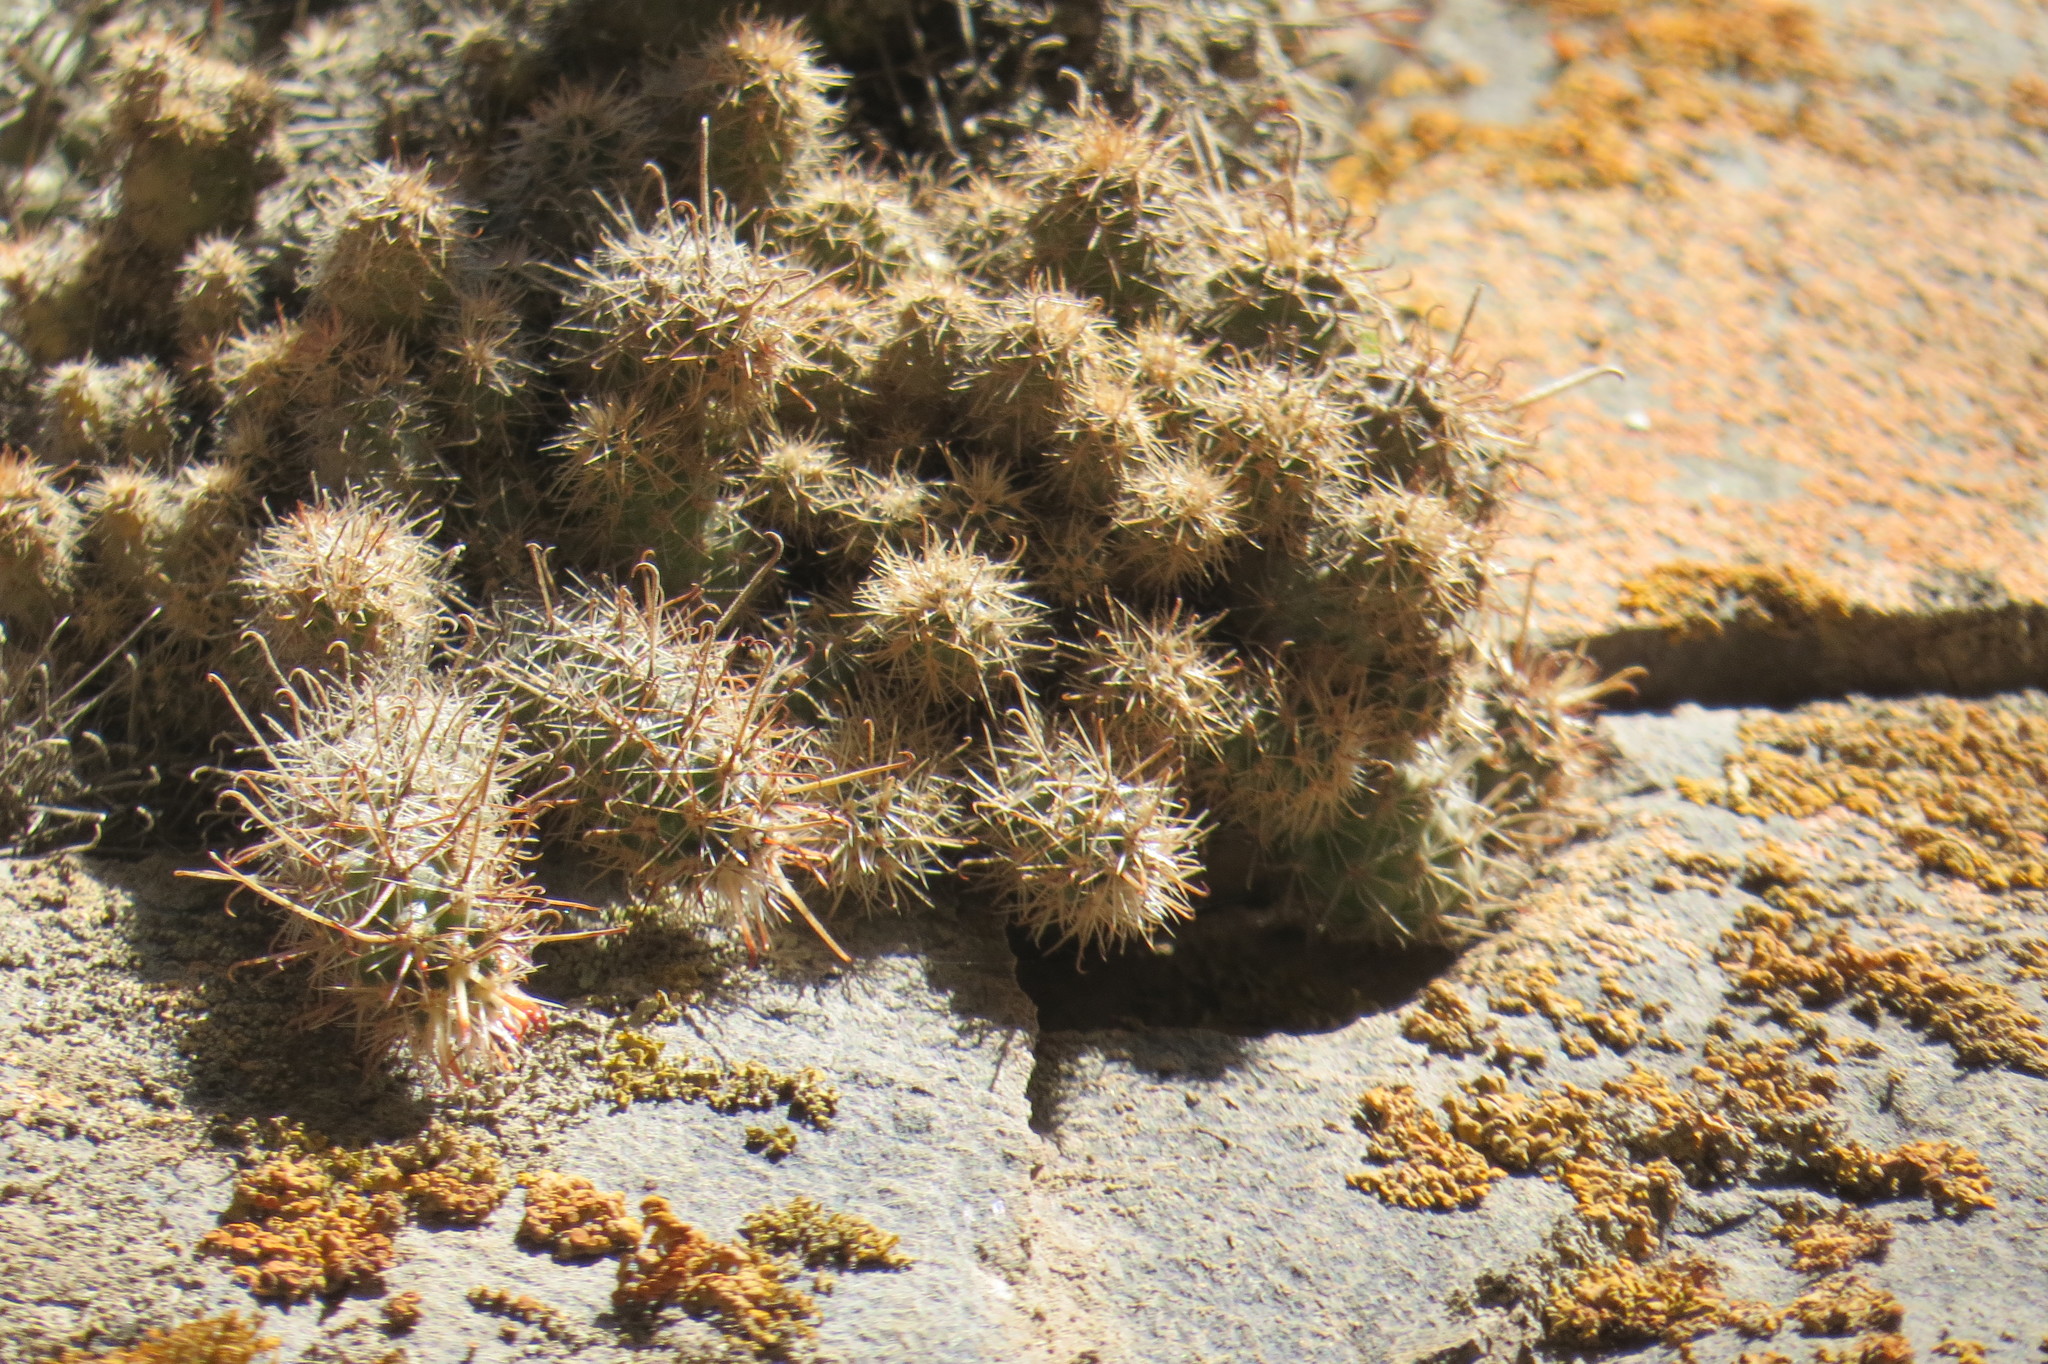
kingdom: Plantae
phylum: Tracheophyta
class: Magnoliopsida
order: Caryophyllales
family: Cactaceae
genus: Austrocactus
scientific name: Austrocactus ferrarii
